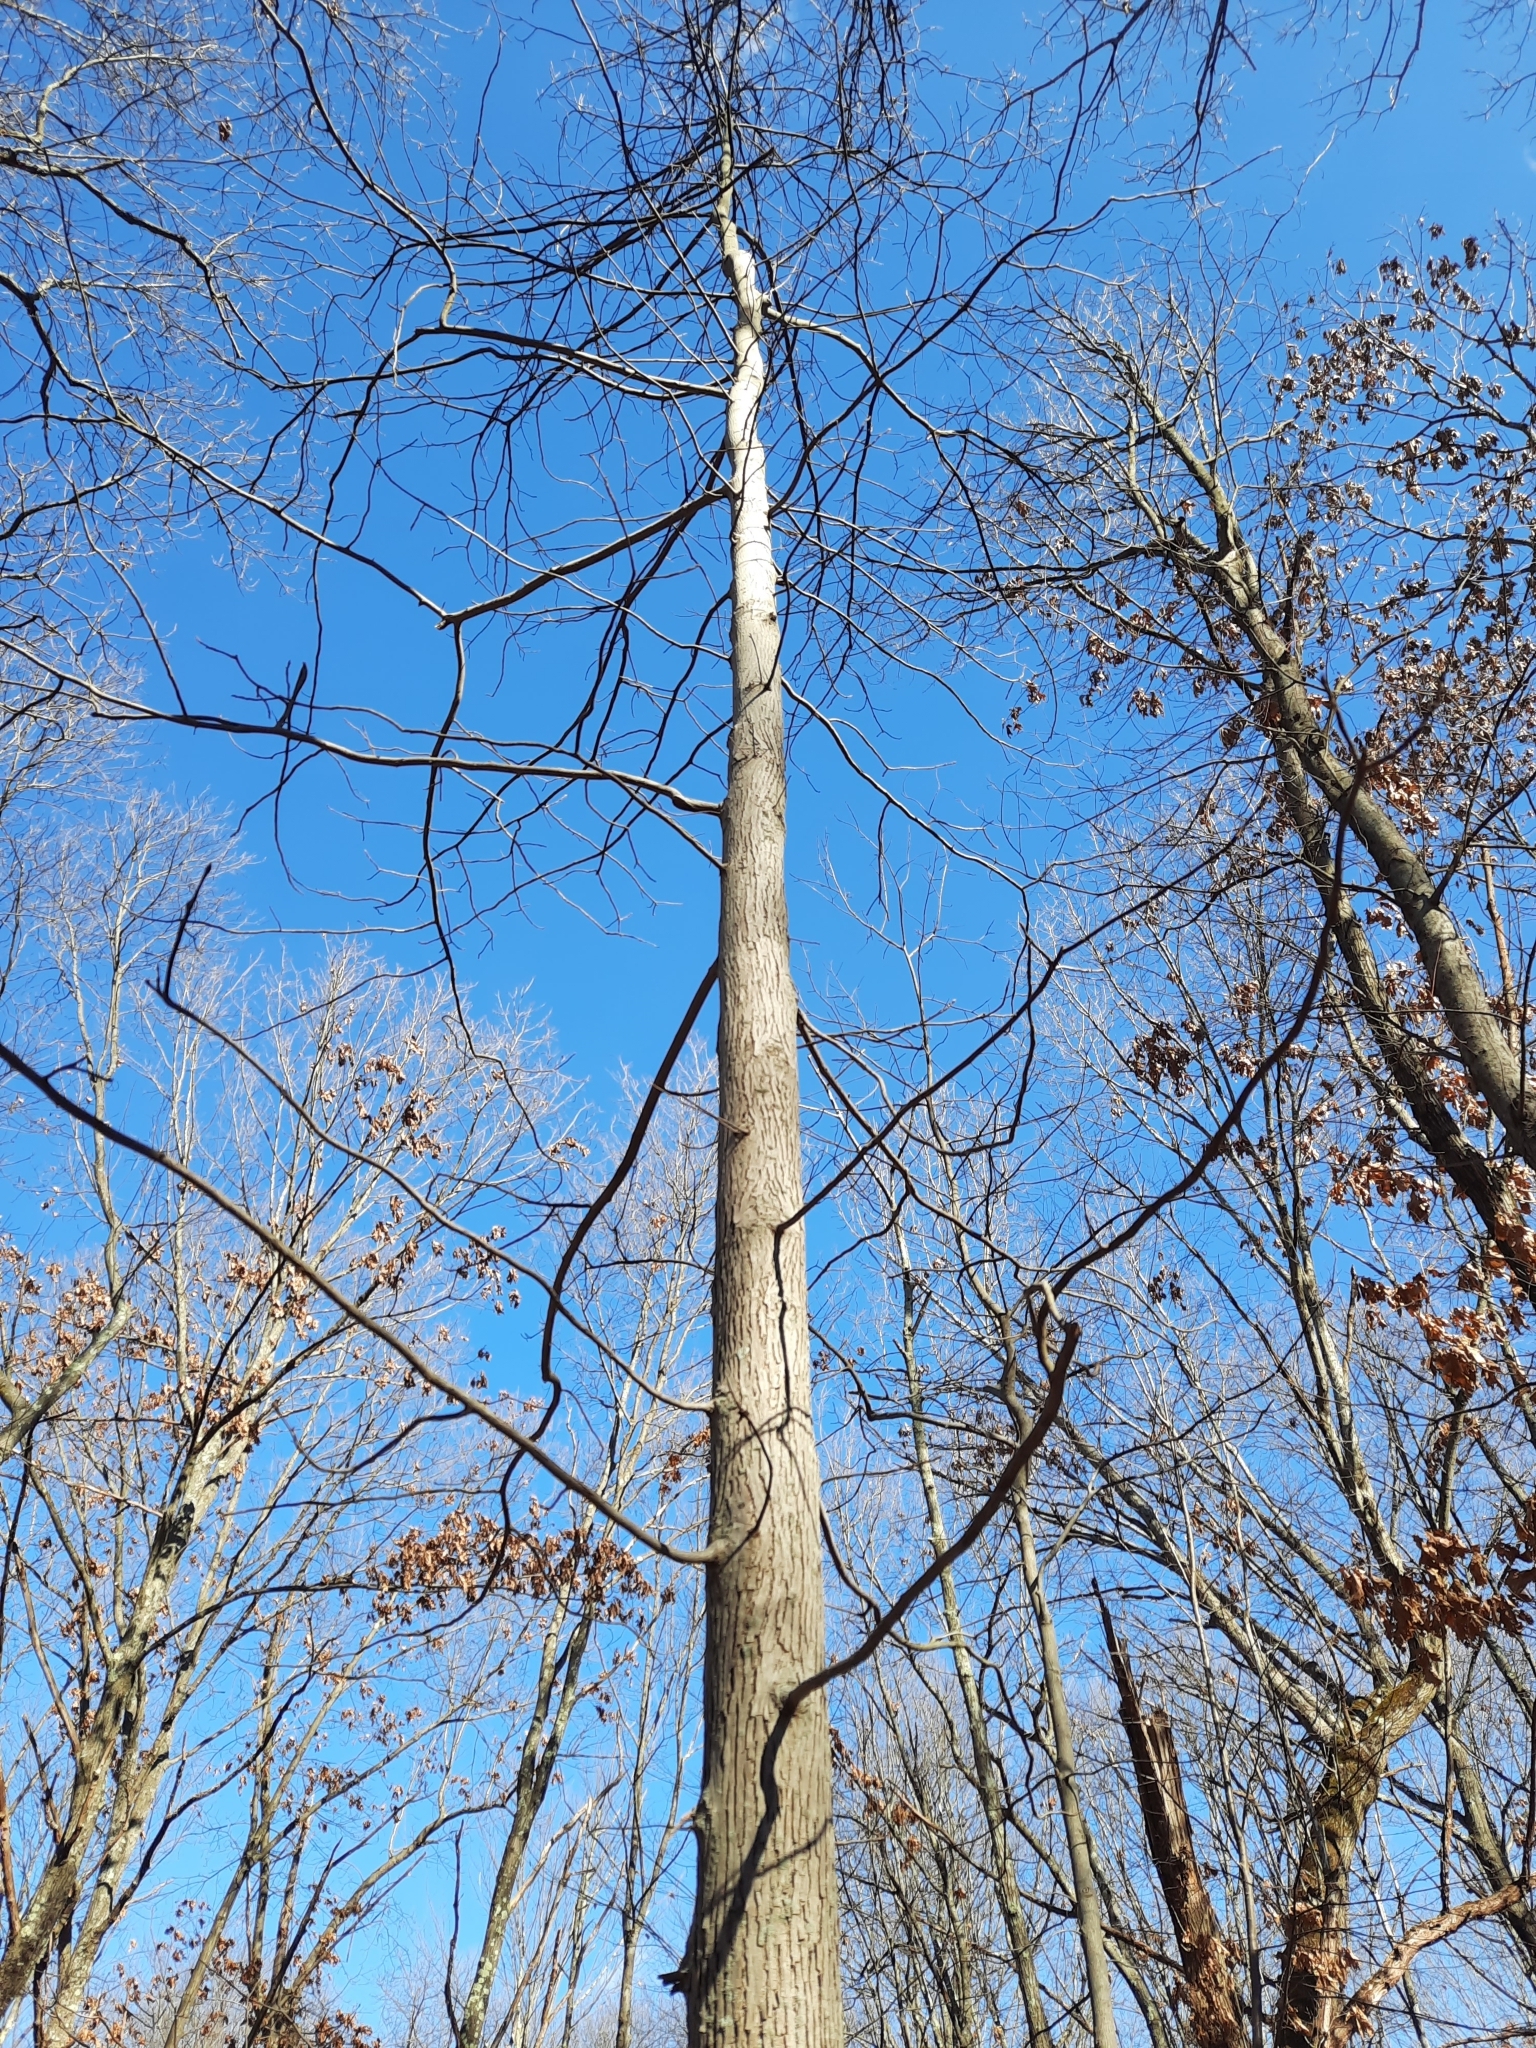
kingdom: Plantae
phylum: Tracheophyta
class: Magnoliopsida
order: Fagales
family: Juglandaceae
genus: Carya
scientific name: Carya glabra
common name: Pignut hickory
